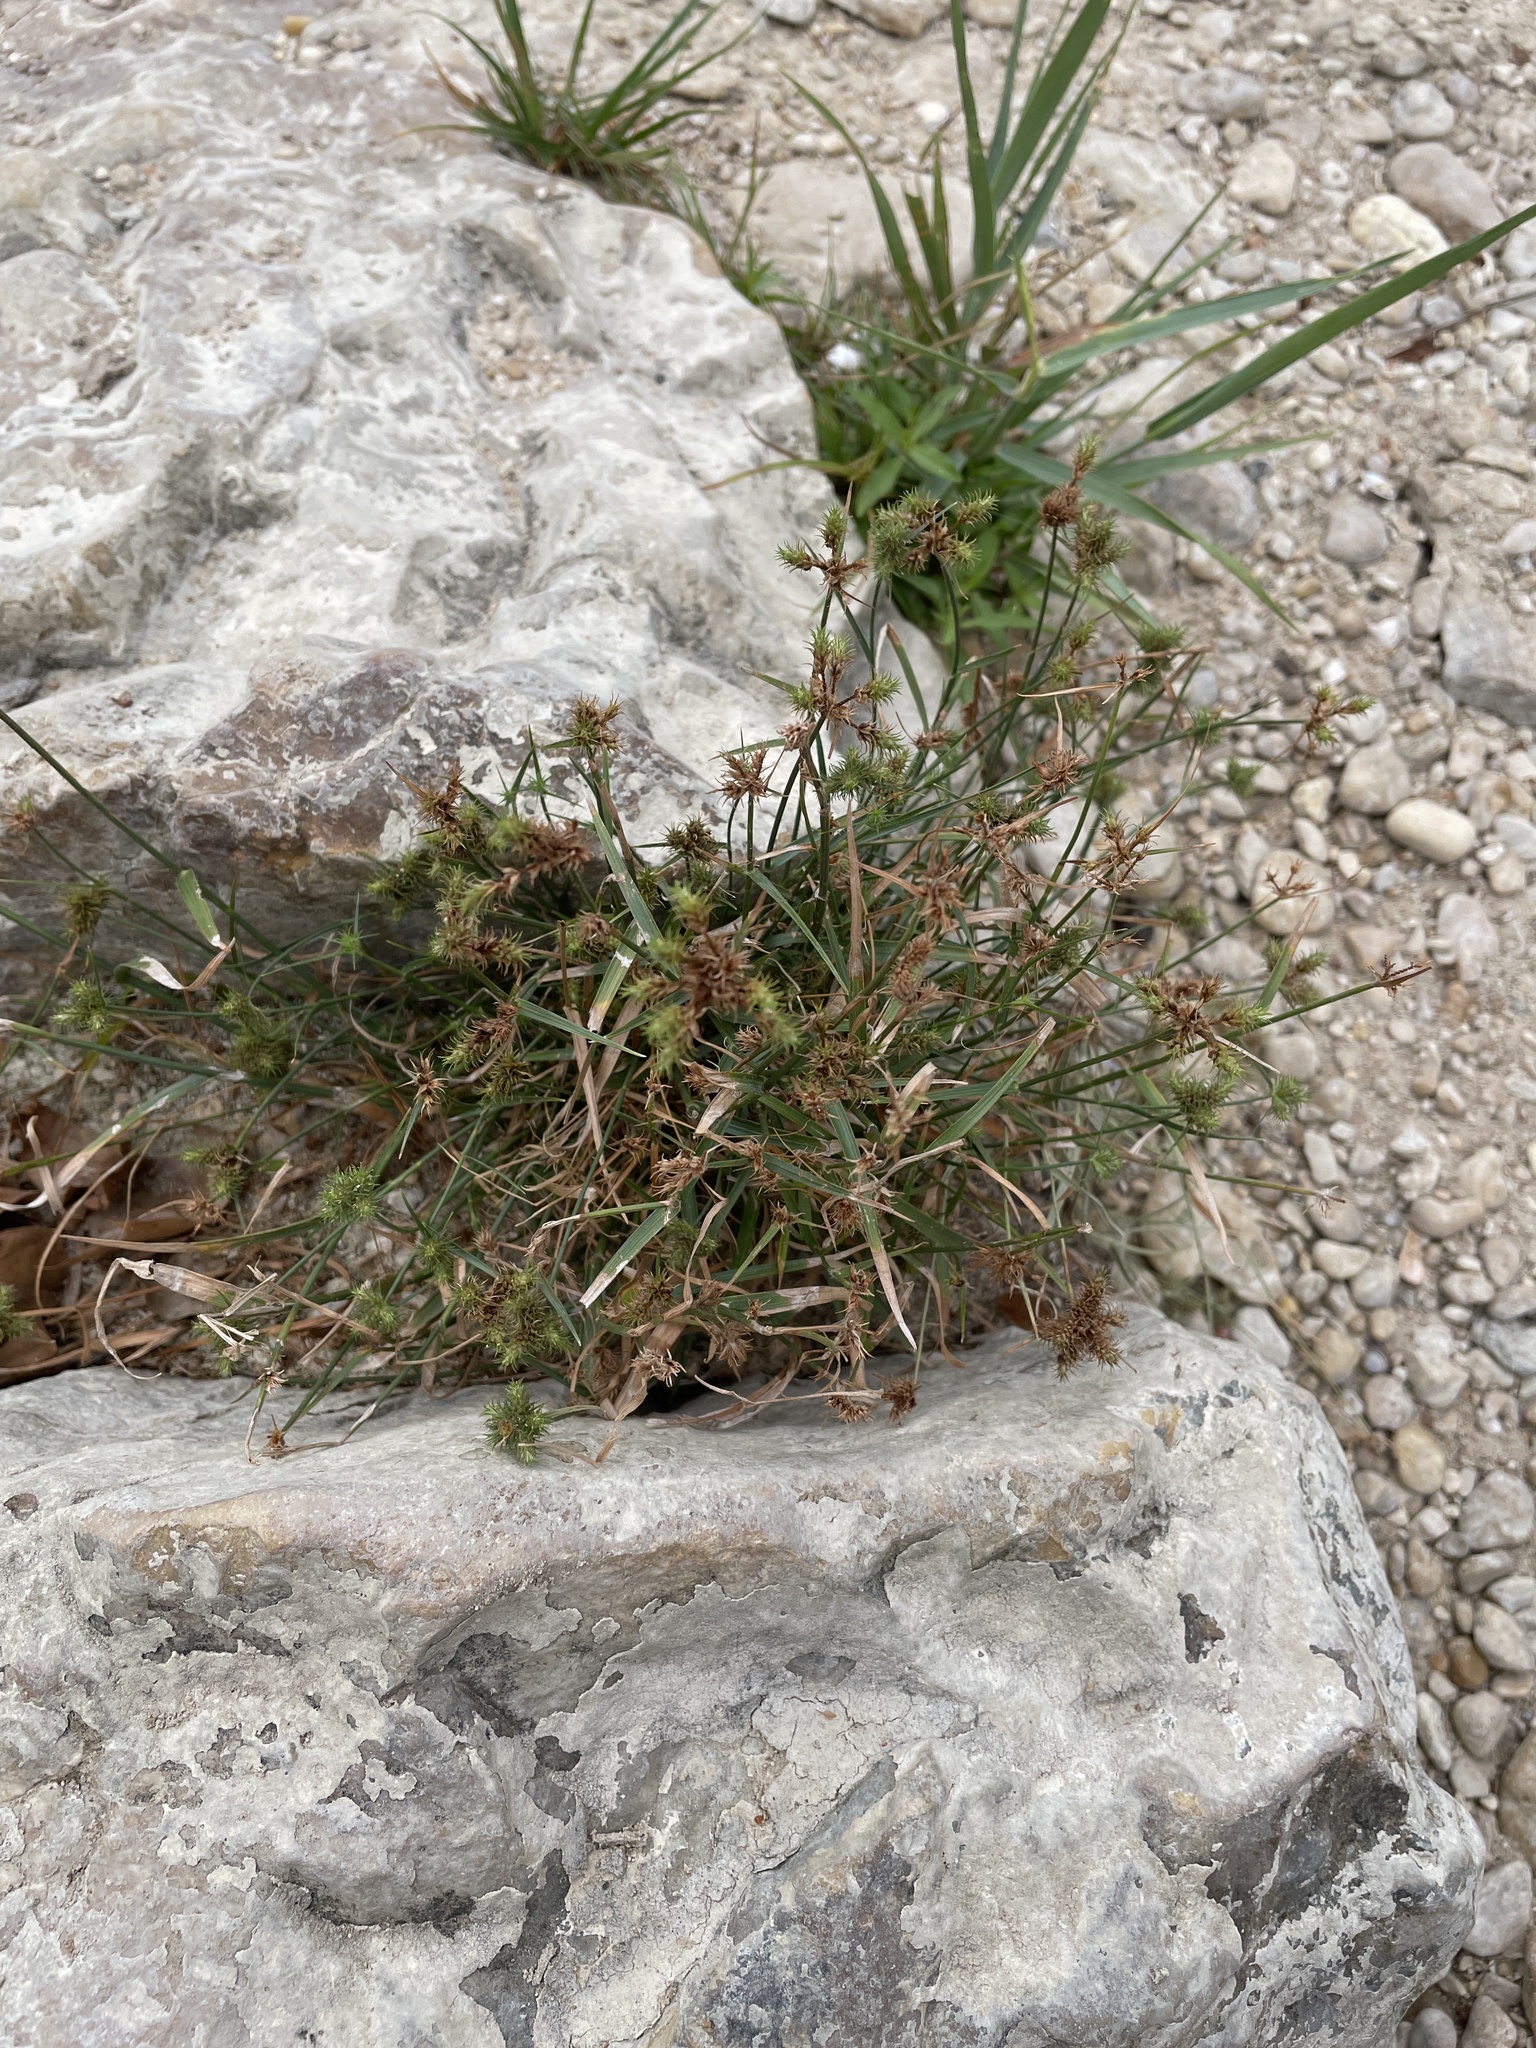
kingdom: Plantae
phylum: Tracheophyta
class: Liliopsida
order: Poales
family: Cyperaceae
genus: Fuirena
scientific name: Fuirena simplex
